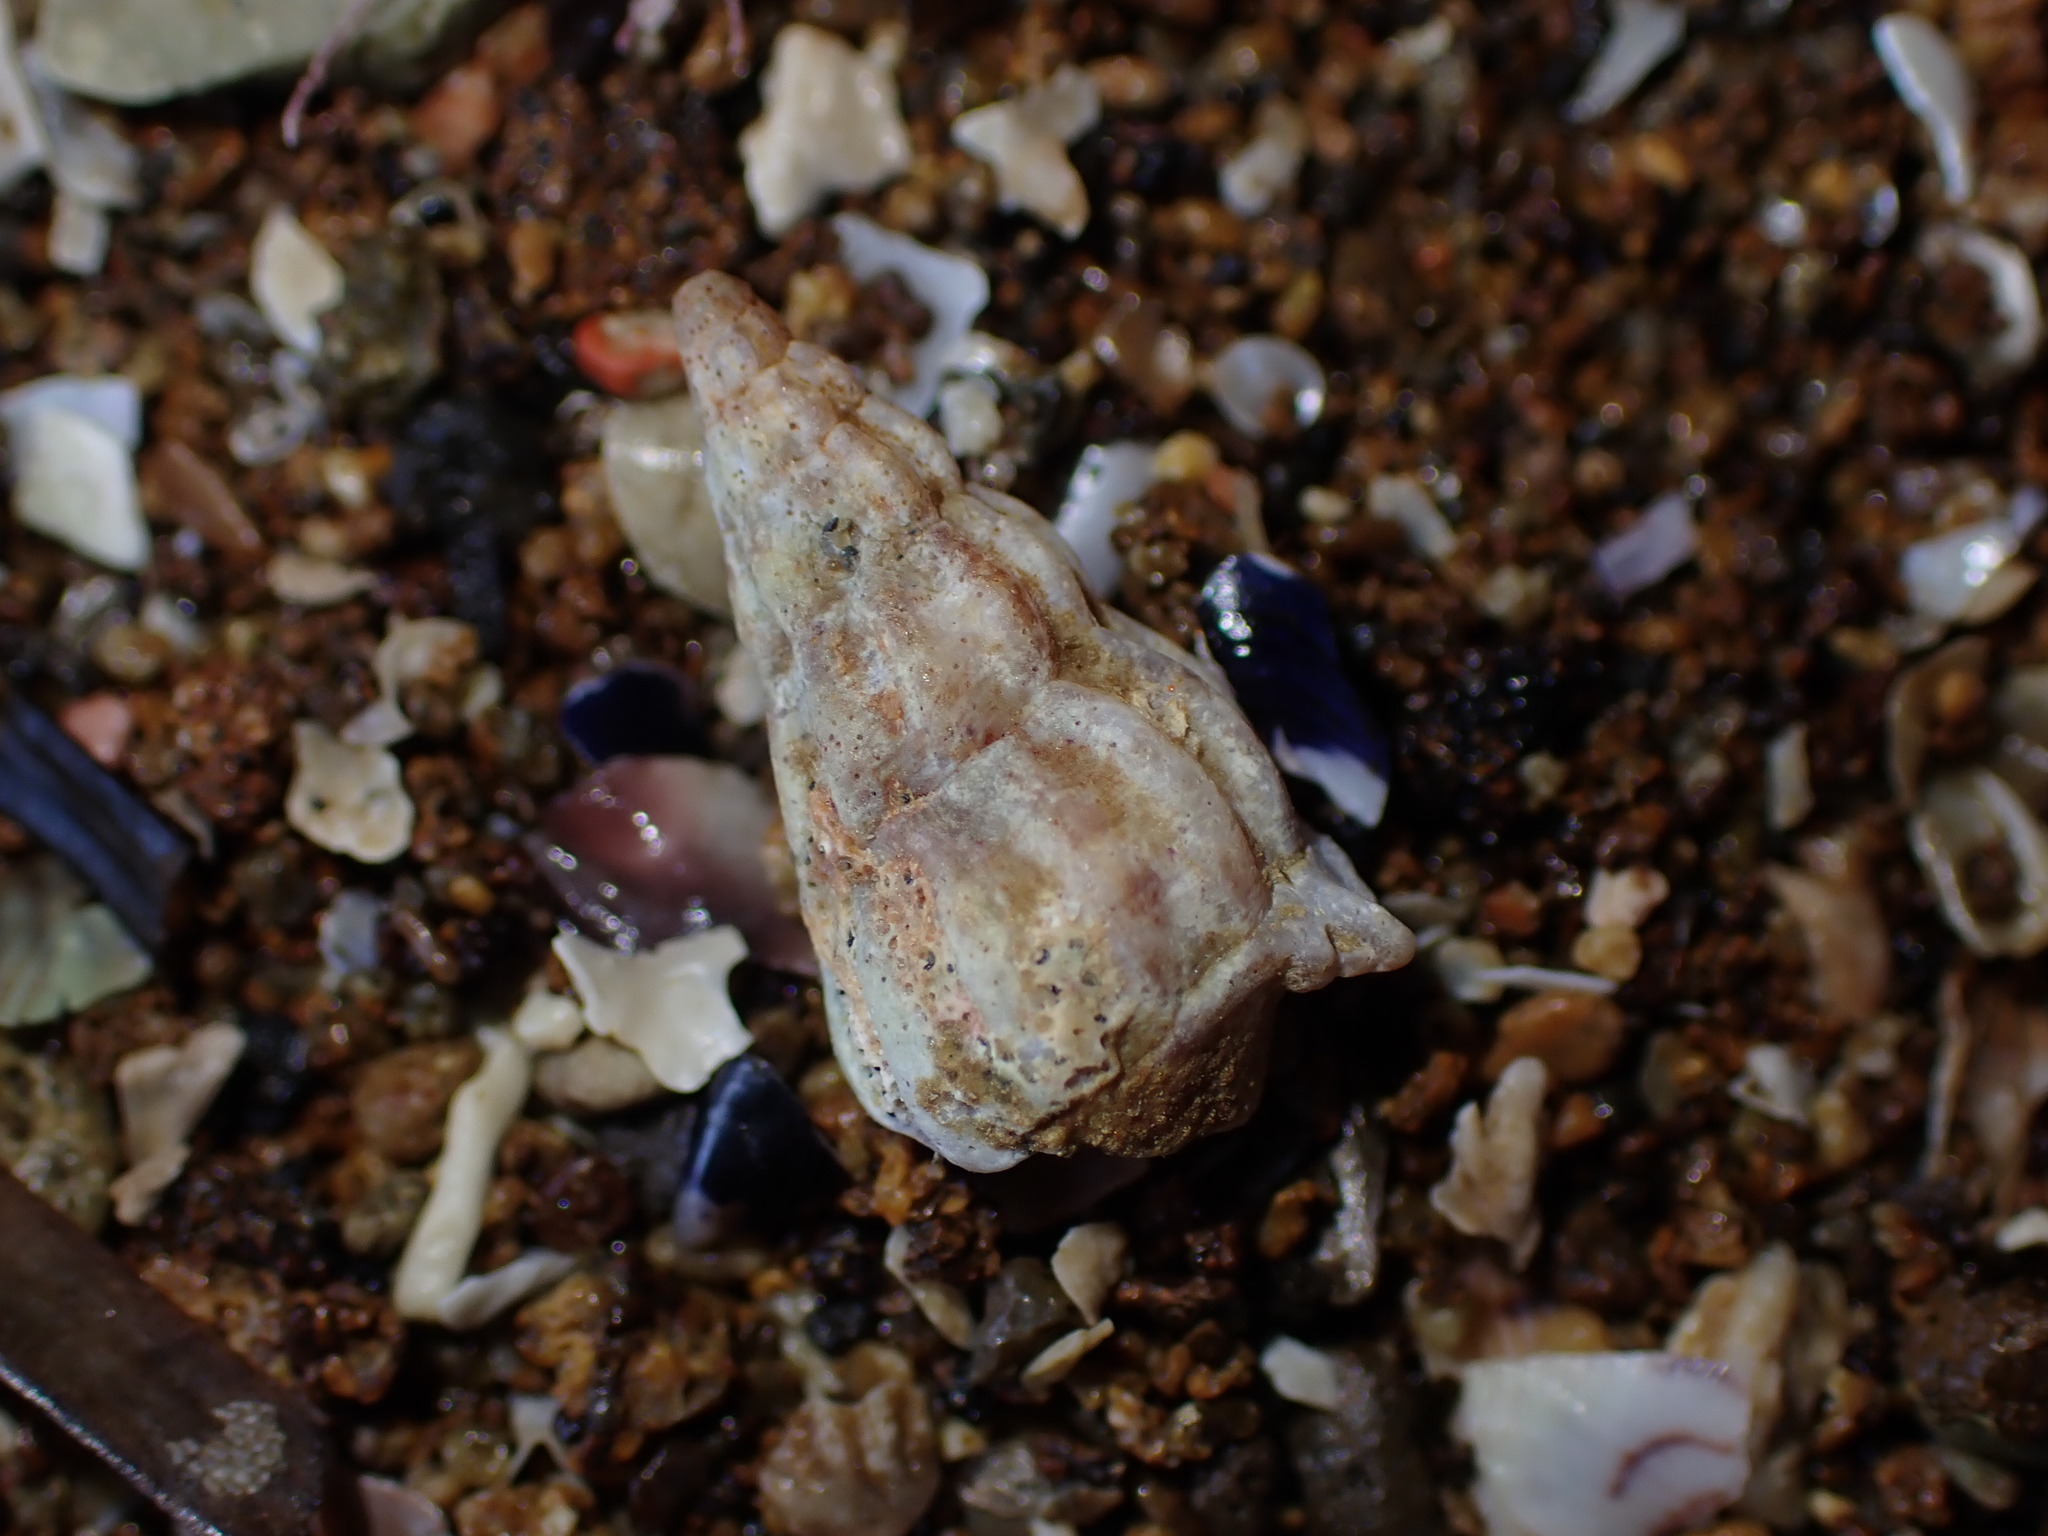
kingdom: Animalia
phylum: Mollusca
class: Gastropoda
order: Neogastropoda
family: Cominellidae
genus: Cominella
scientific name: Cominella accuminata
